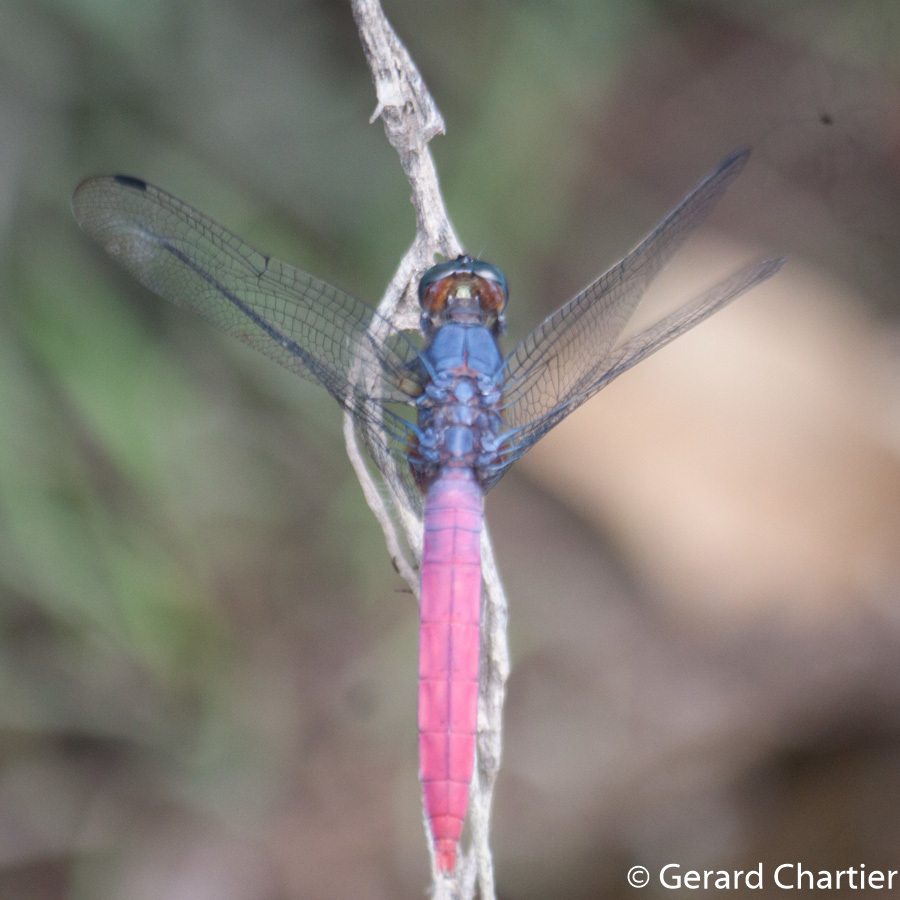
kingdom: Animalia
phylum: Arthropoda
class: Insecta
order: Odonata
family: Libellulidae
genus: Orthetrum
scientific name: Orthetrum pruinosum
